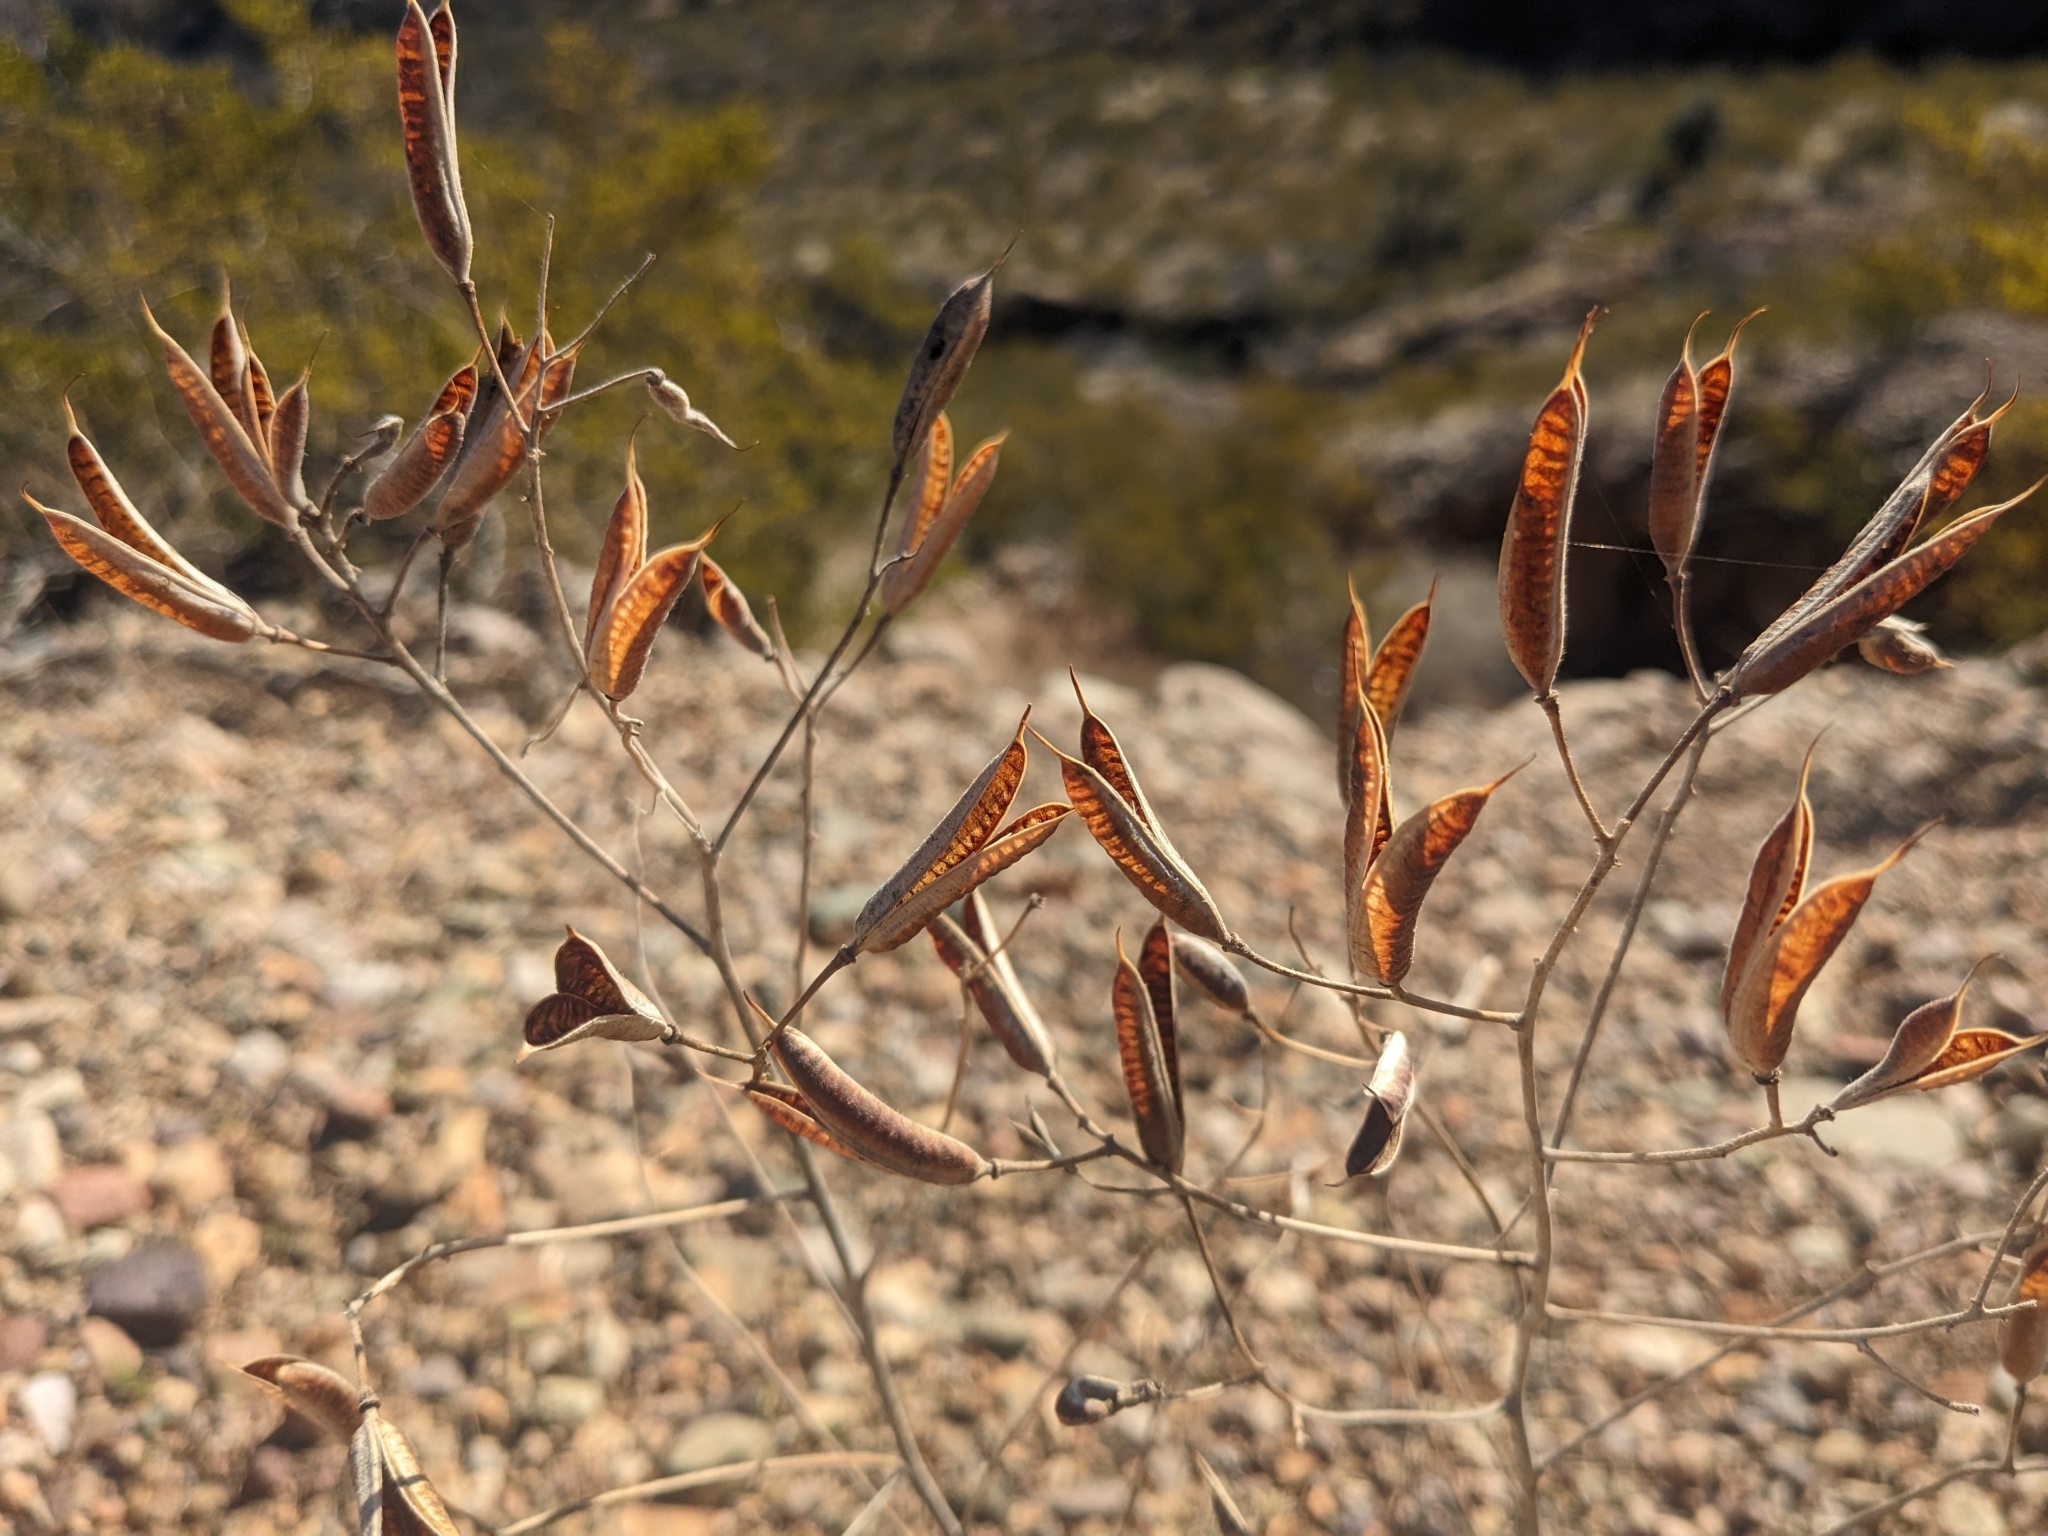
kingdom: Plantae
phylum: Tracheophyta
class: Magnoliopsida
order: Fabales
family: Fabaceae
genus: Senna
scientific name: Senna covesii
